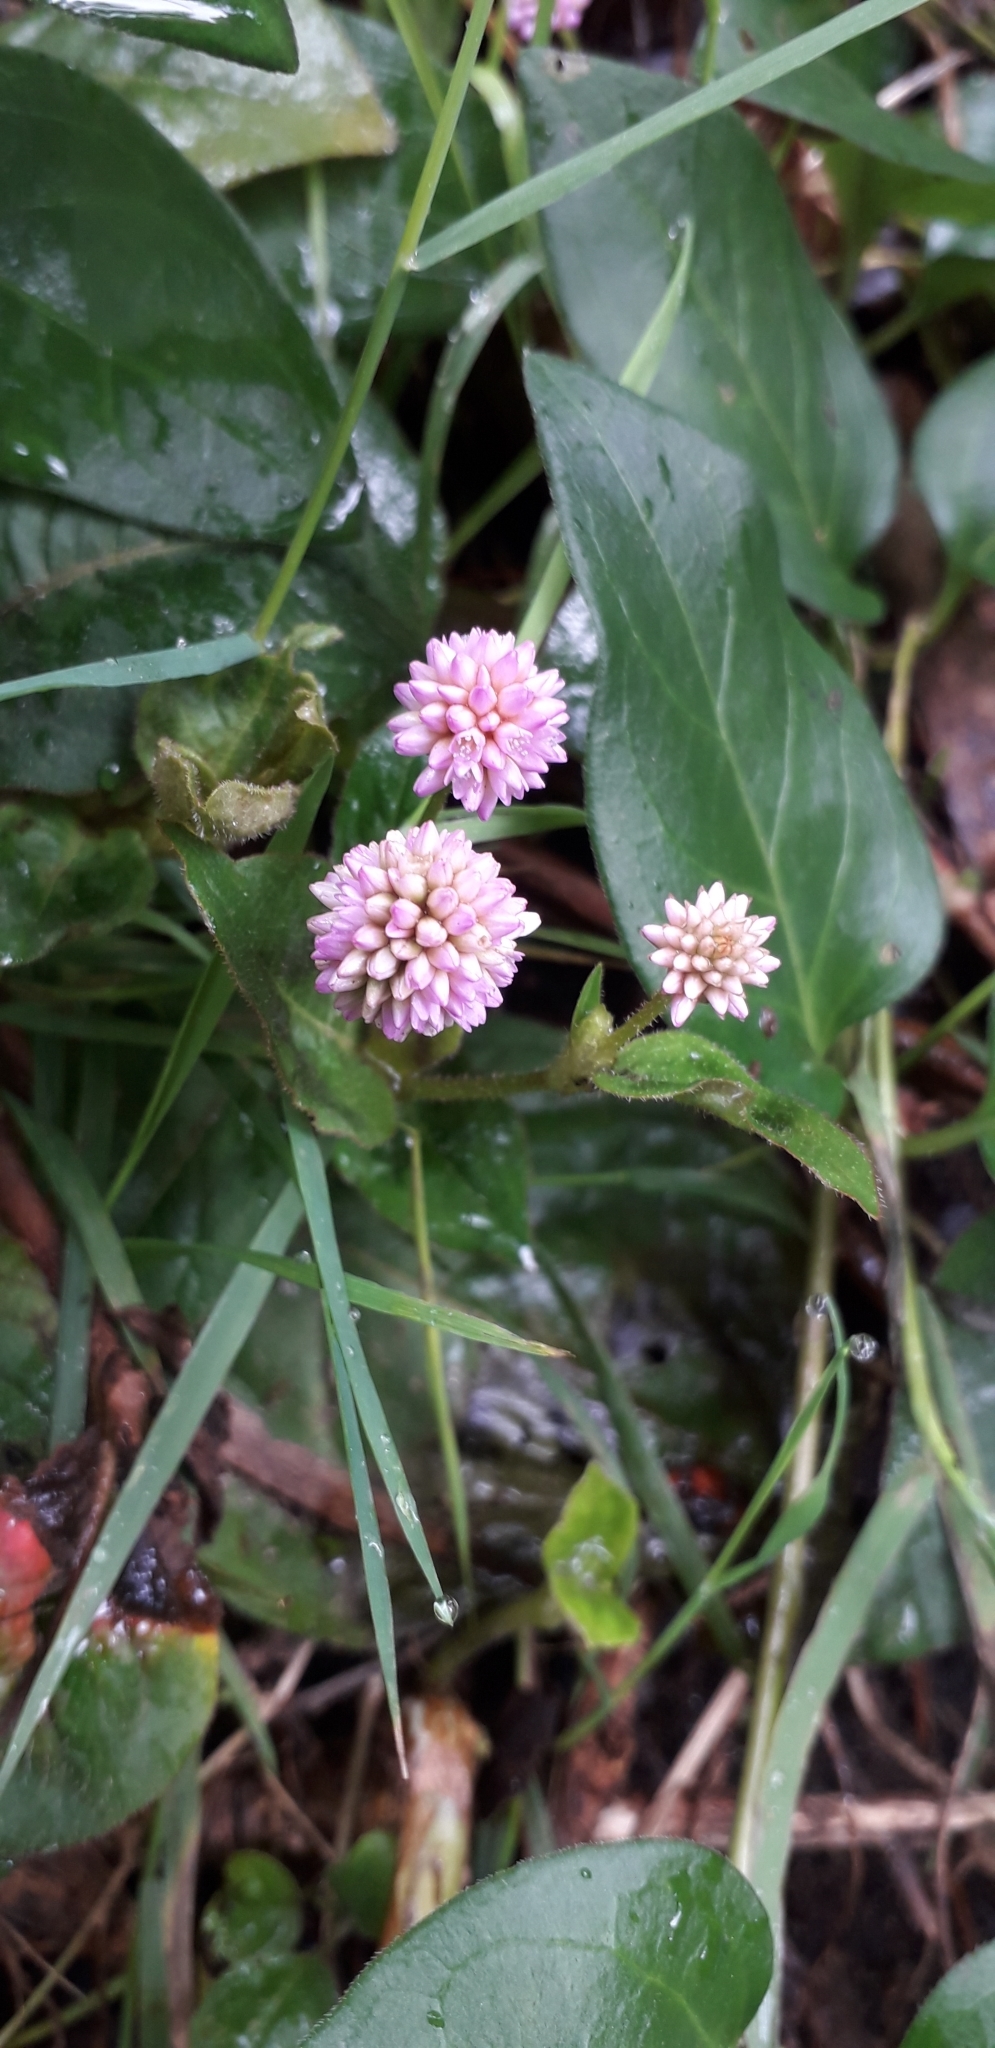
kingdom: Plantae
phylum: Tracheophyta
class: Magnoliopsida
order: Caryophyllales
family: Polygonaceae
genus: Persicaria
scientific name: Persicaria capitata
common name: Pinkhead smartweed
